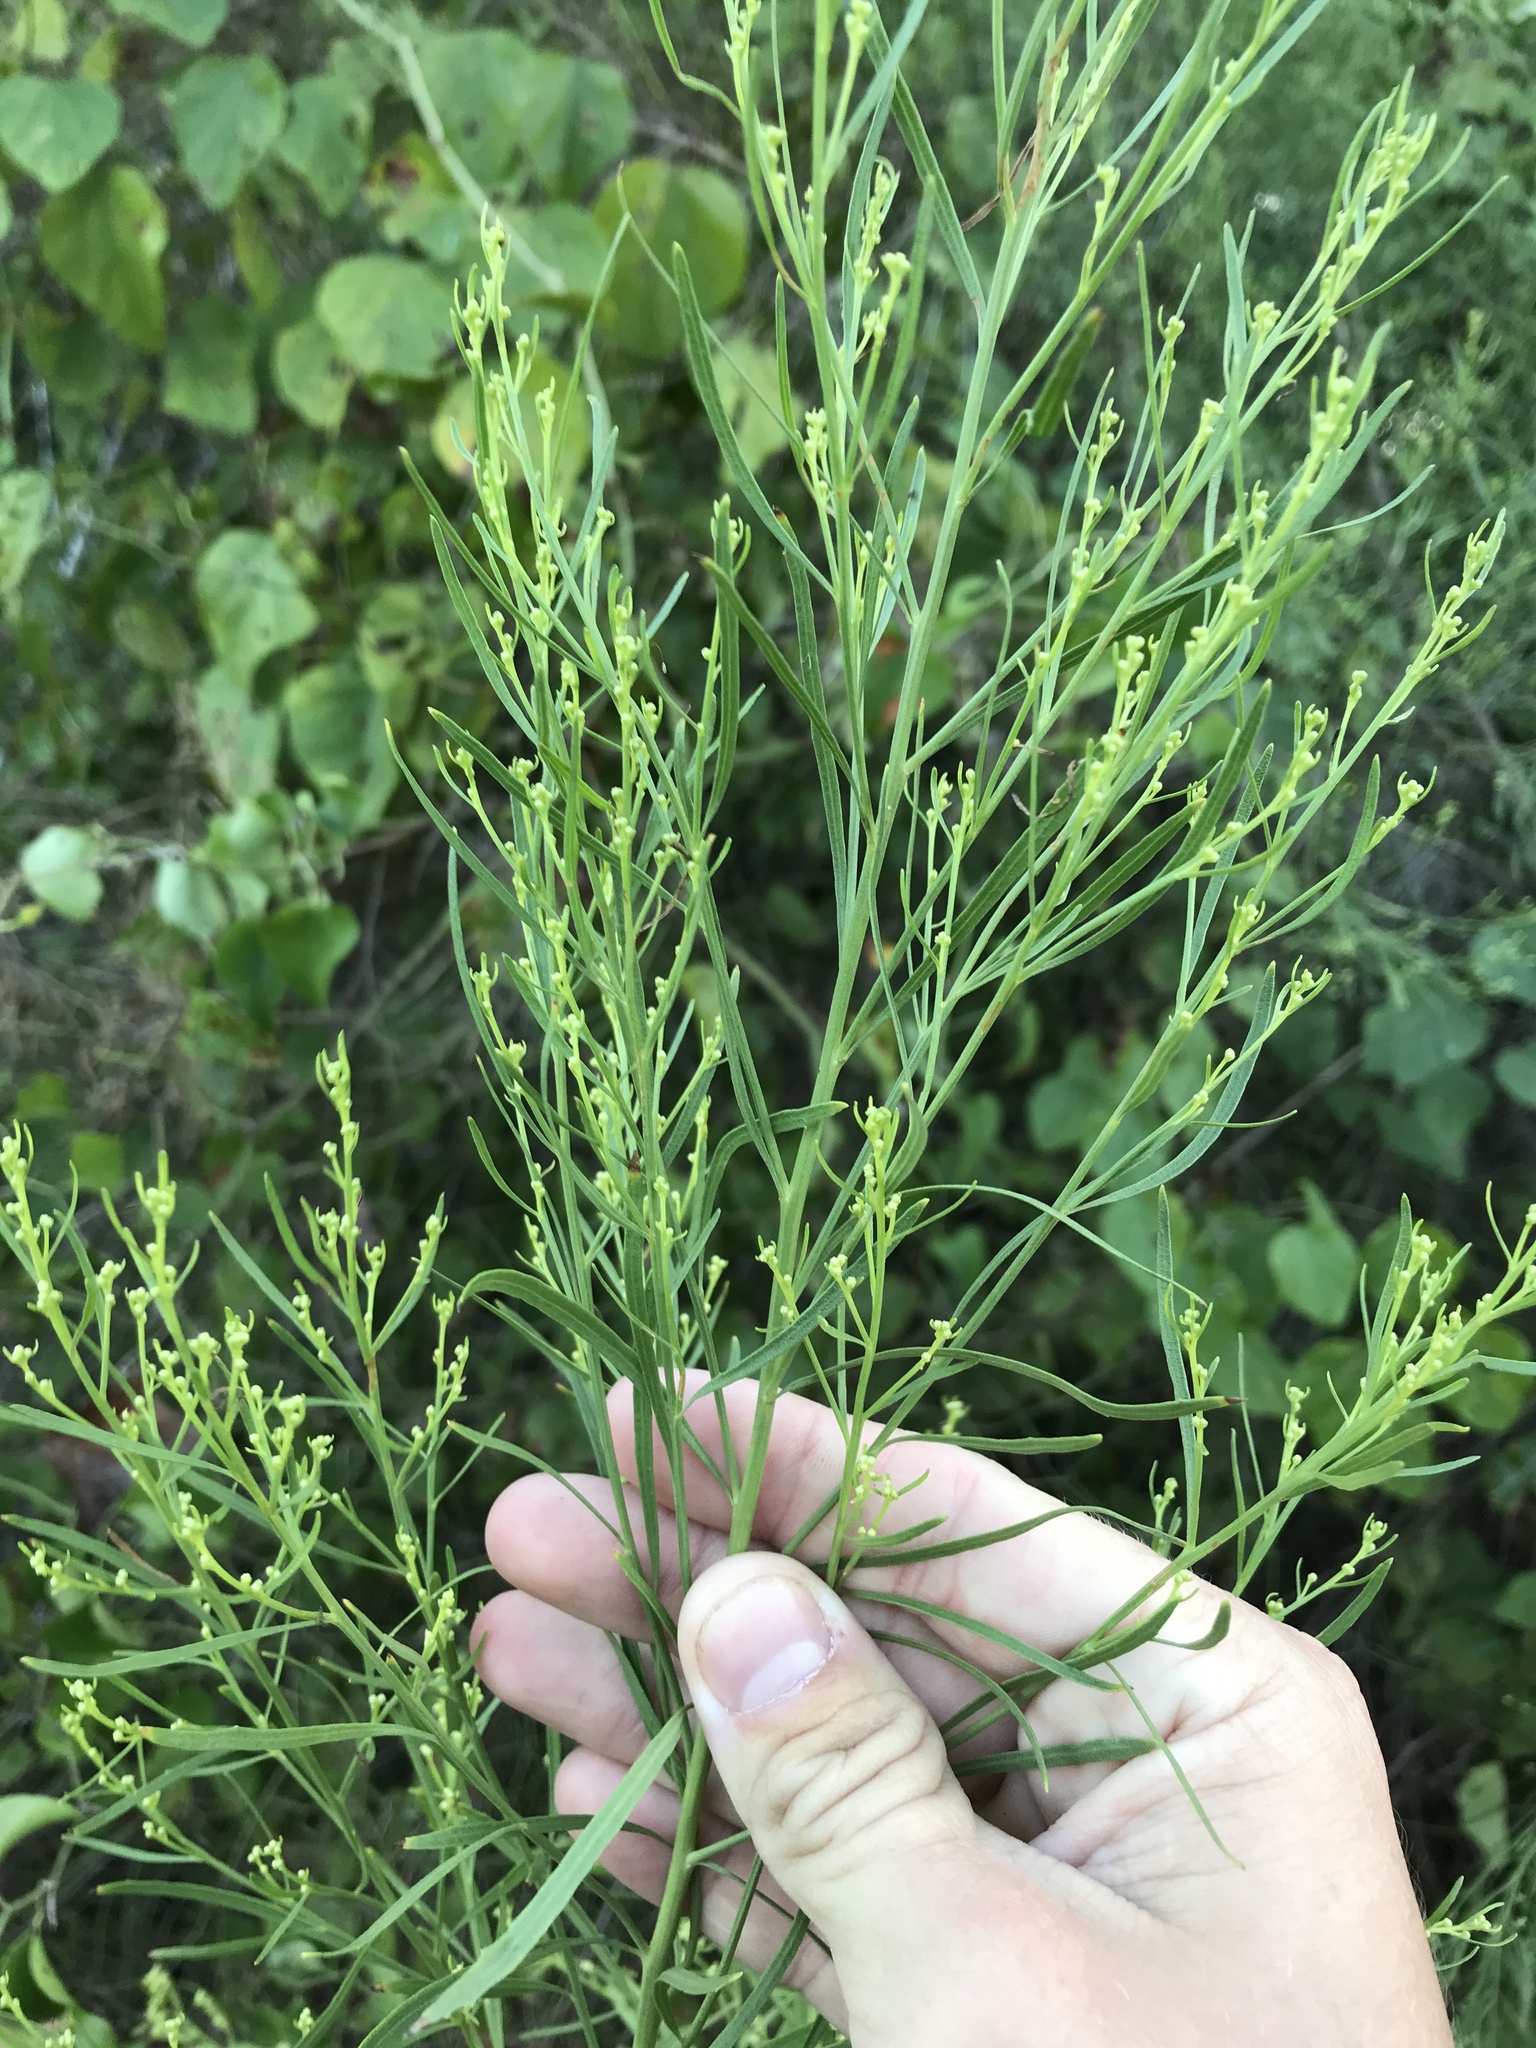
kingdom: Plantae
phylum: Tracheophyta
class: Magnoliopsida
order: Asterales
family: Asteraceae
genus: Baccharis
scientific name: Baccharis neglecta
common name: Roosevelt-weed
